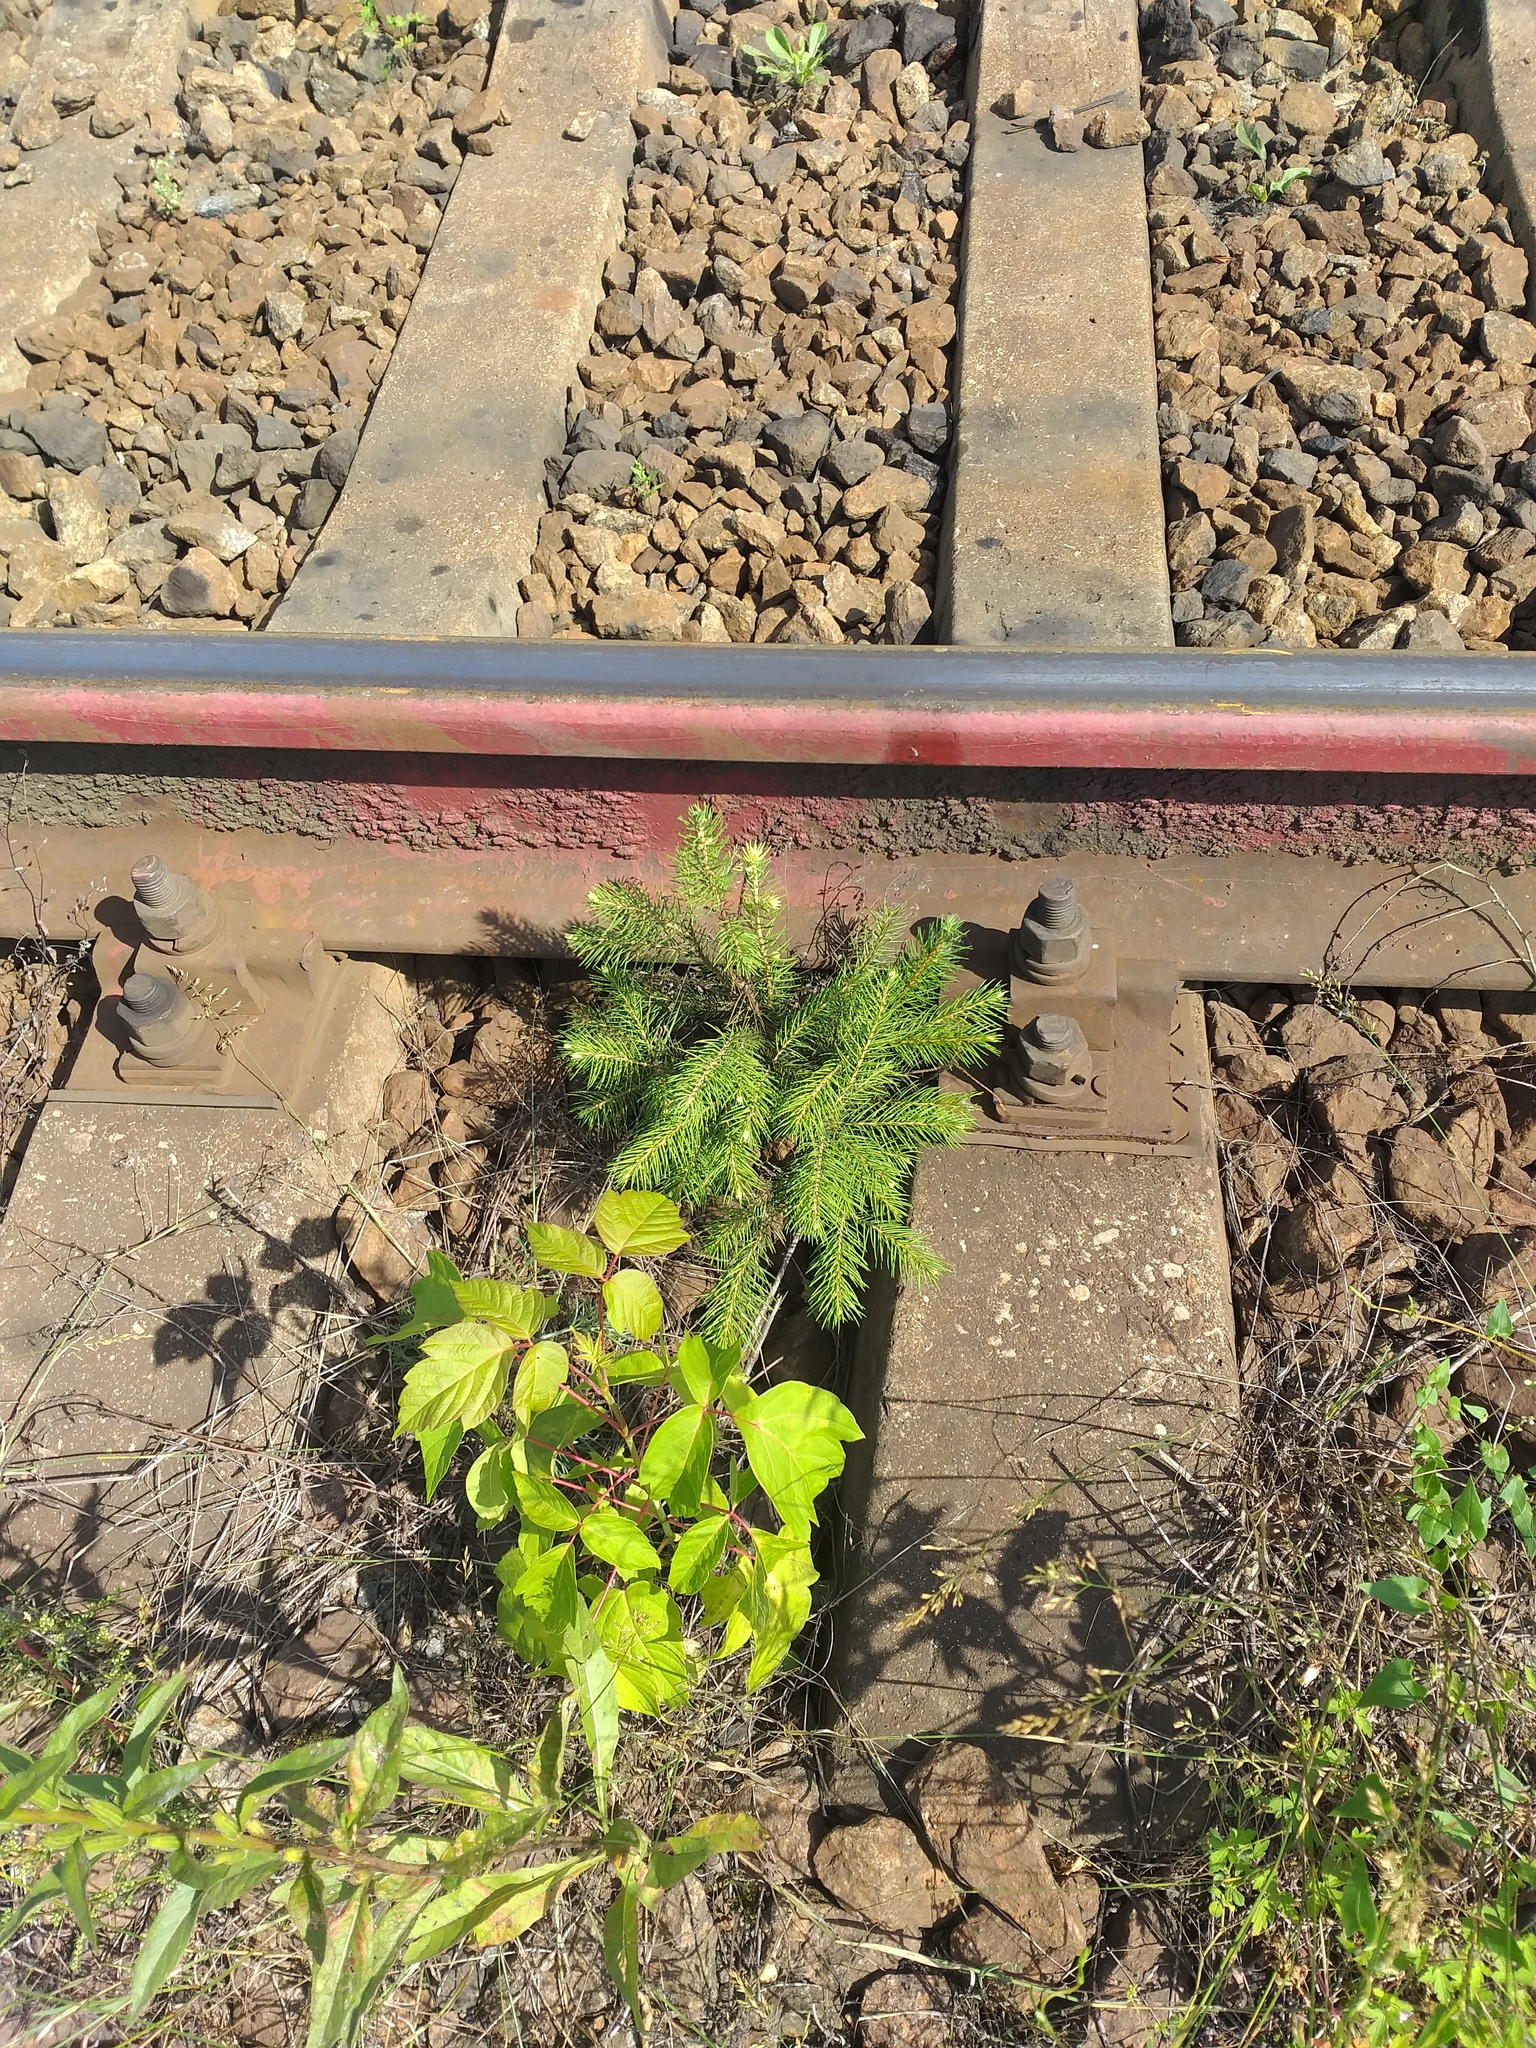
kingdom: Plantae
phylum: Tracheophyta
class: Pinopsida
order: Pinales
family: Pinaceae
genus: Picea
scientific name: Picea abies
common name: Norway spruce
